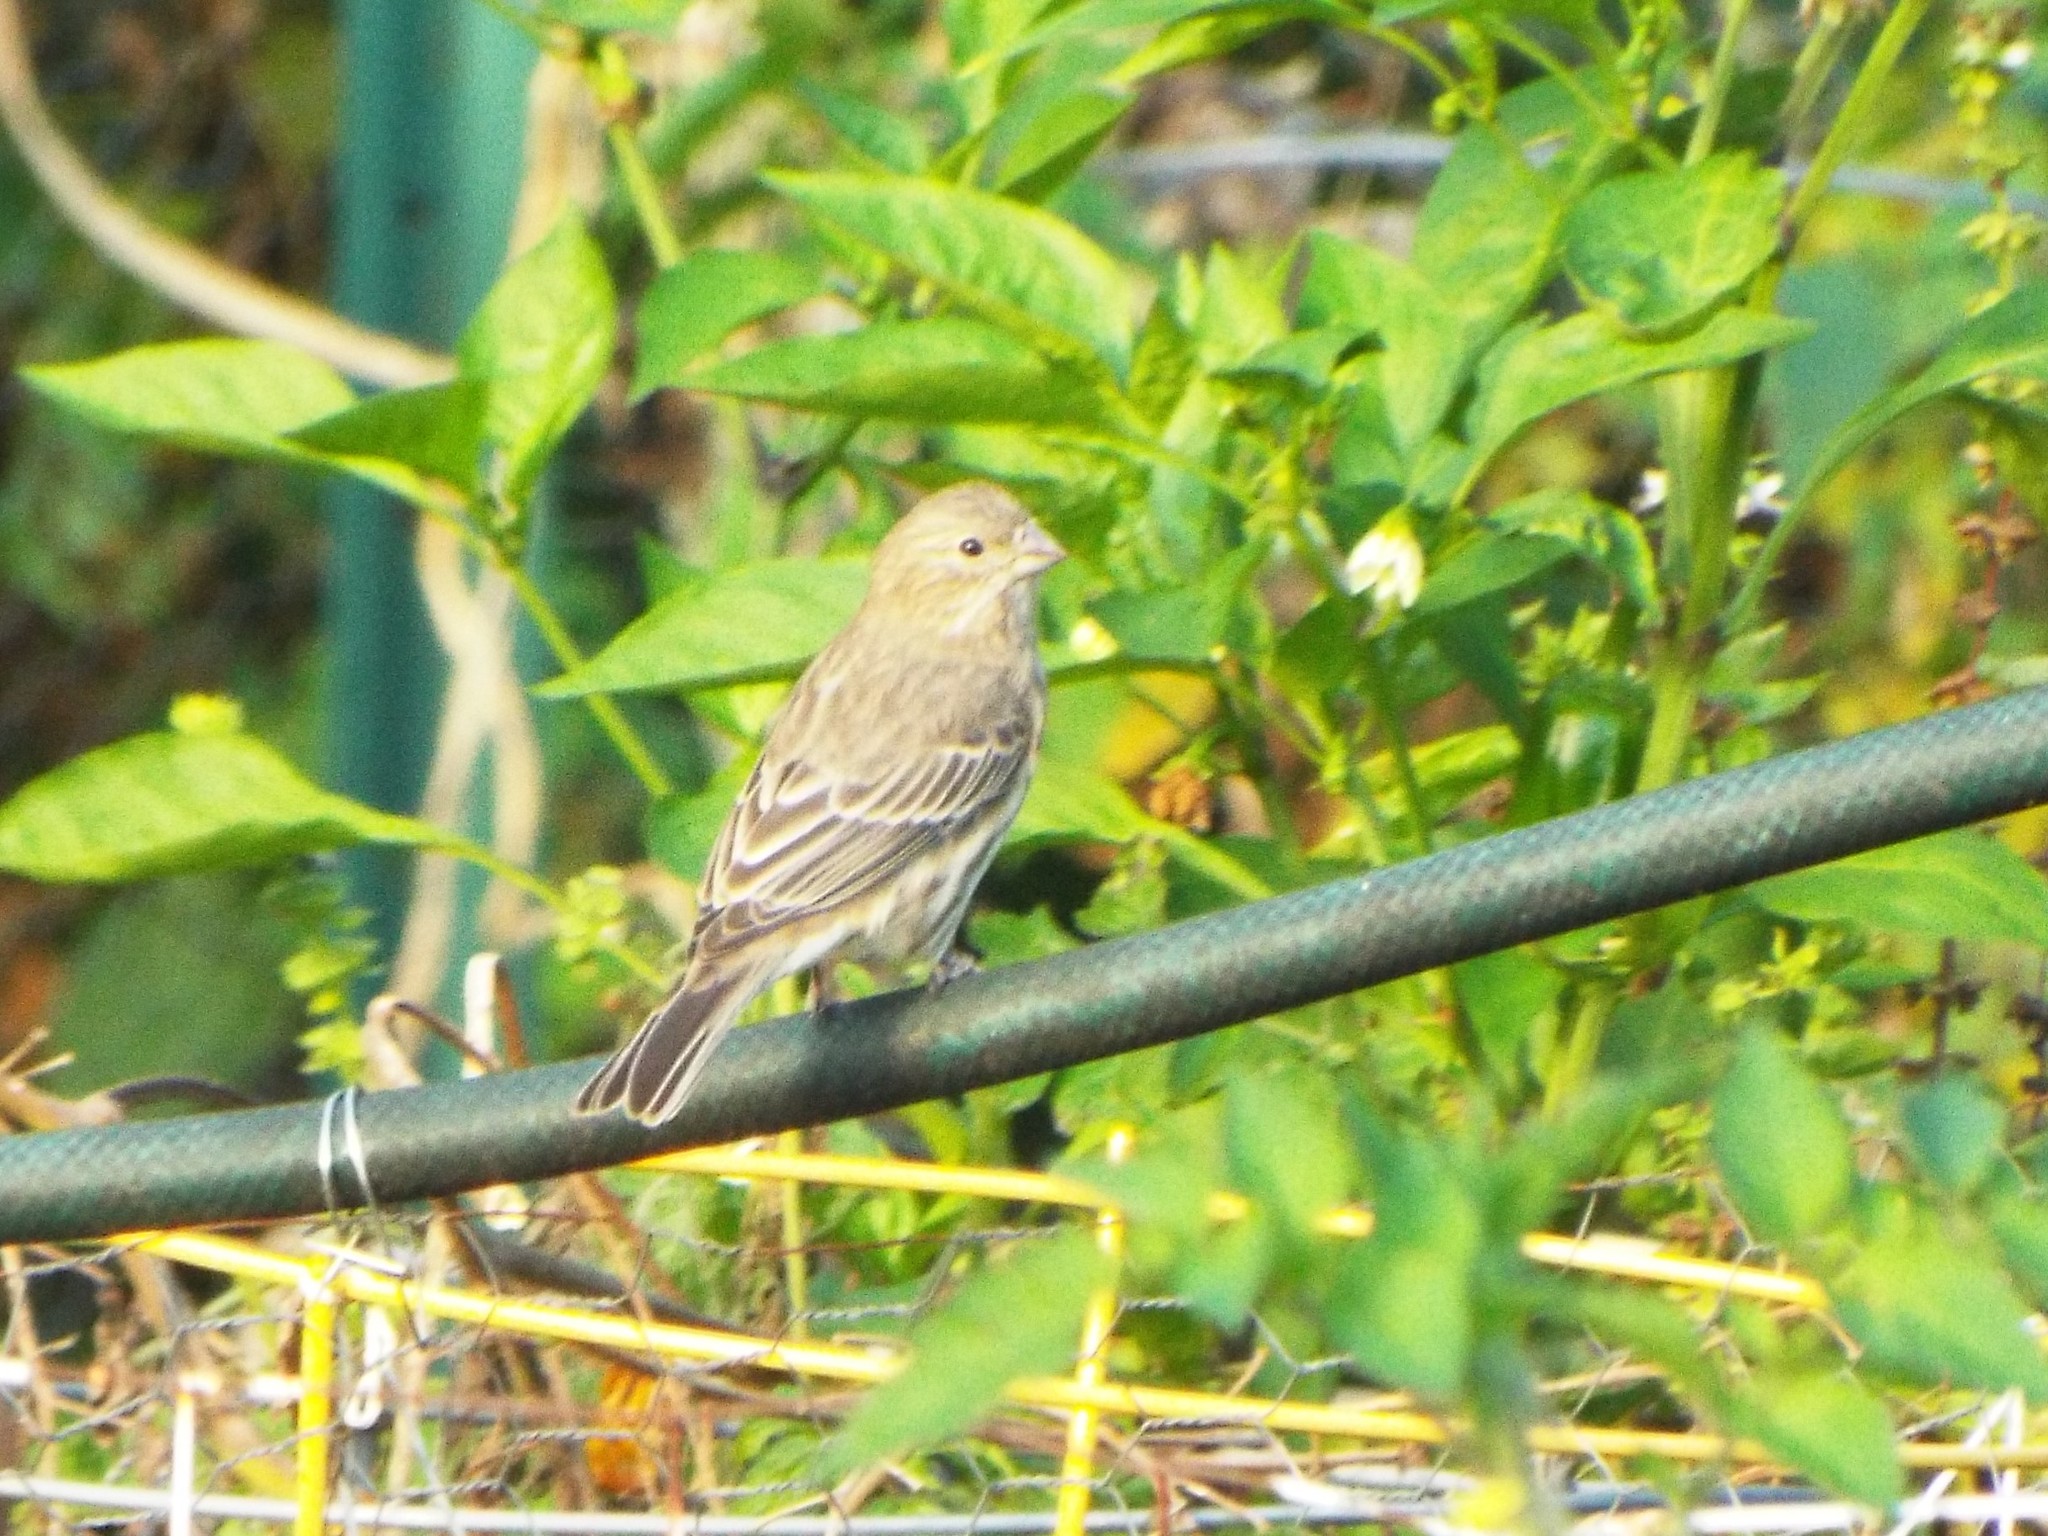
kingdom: Animalia
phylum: Chordata
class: Aves
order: Passeriformes
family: Fringillidae
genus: Haemorhous
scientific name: Haemorhous mexicanus
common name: House finch
